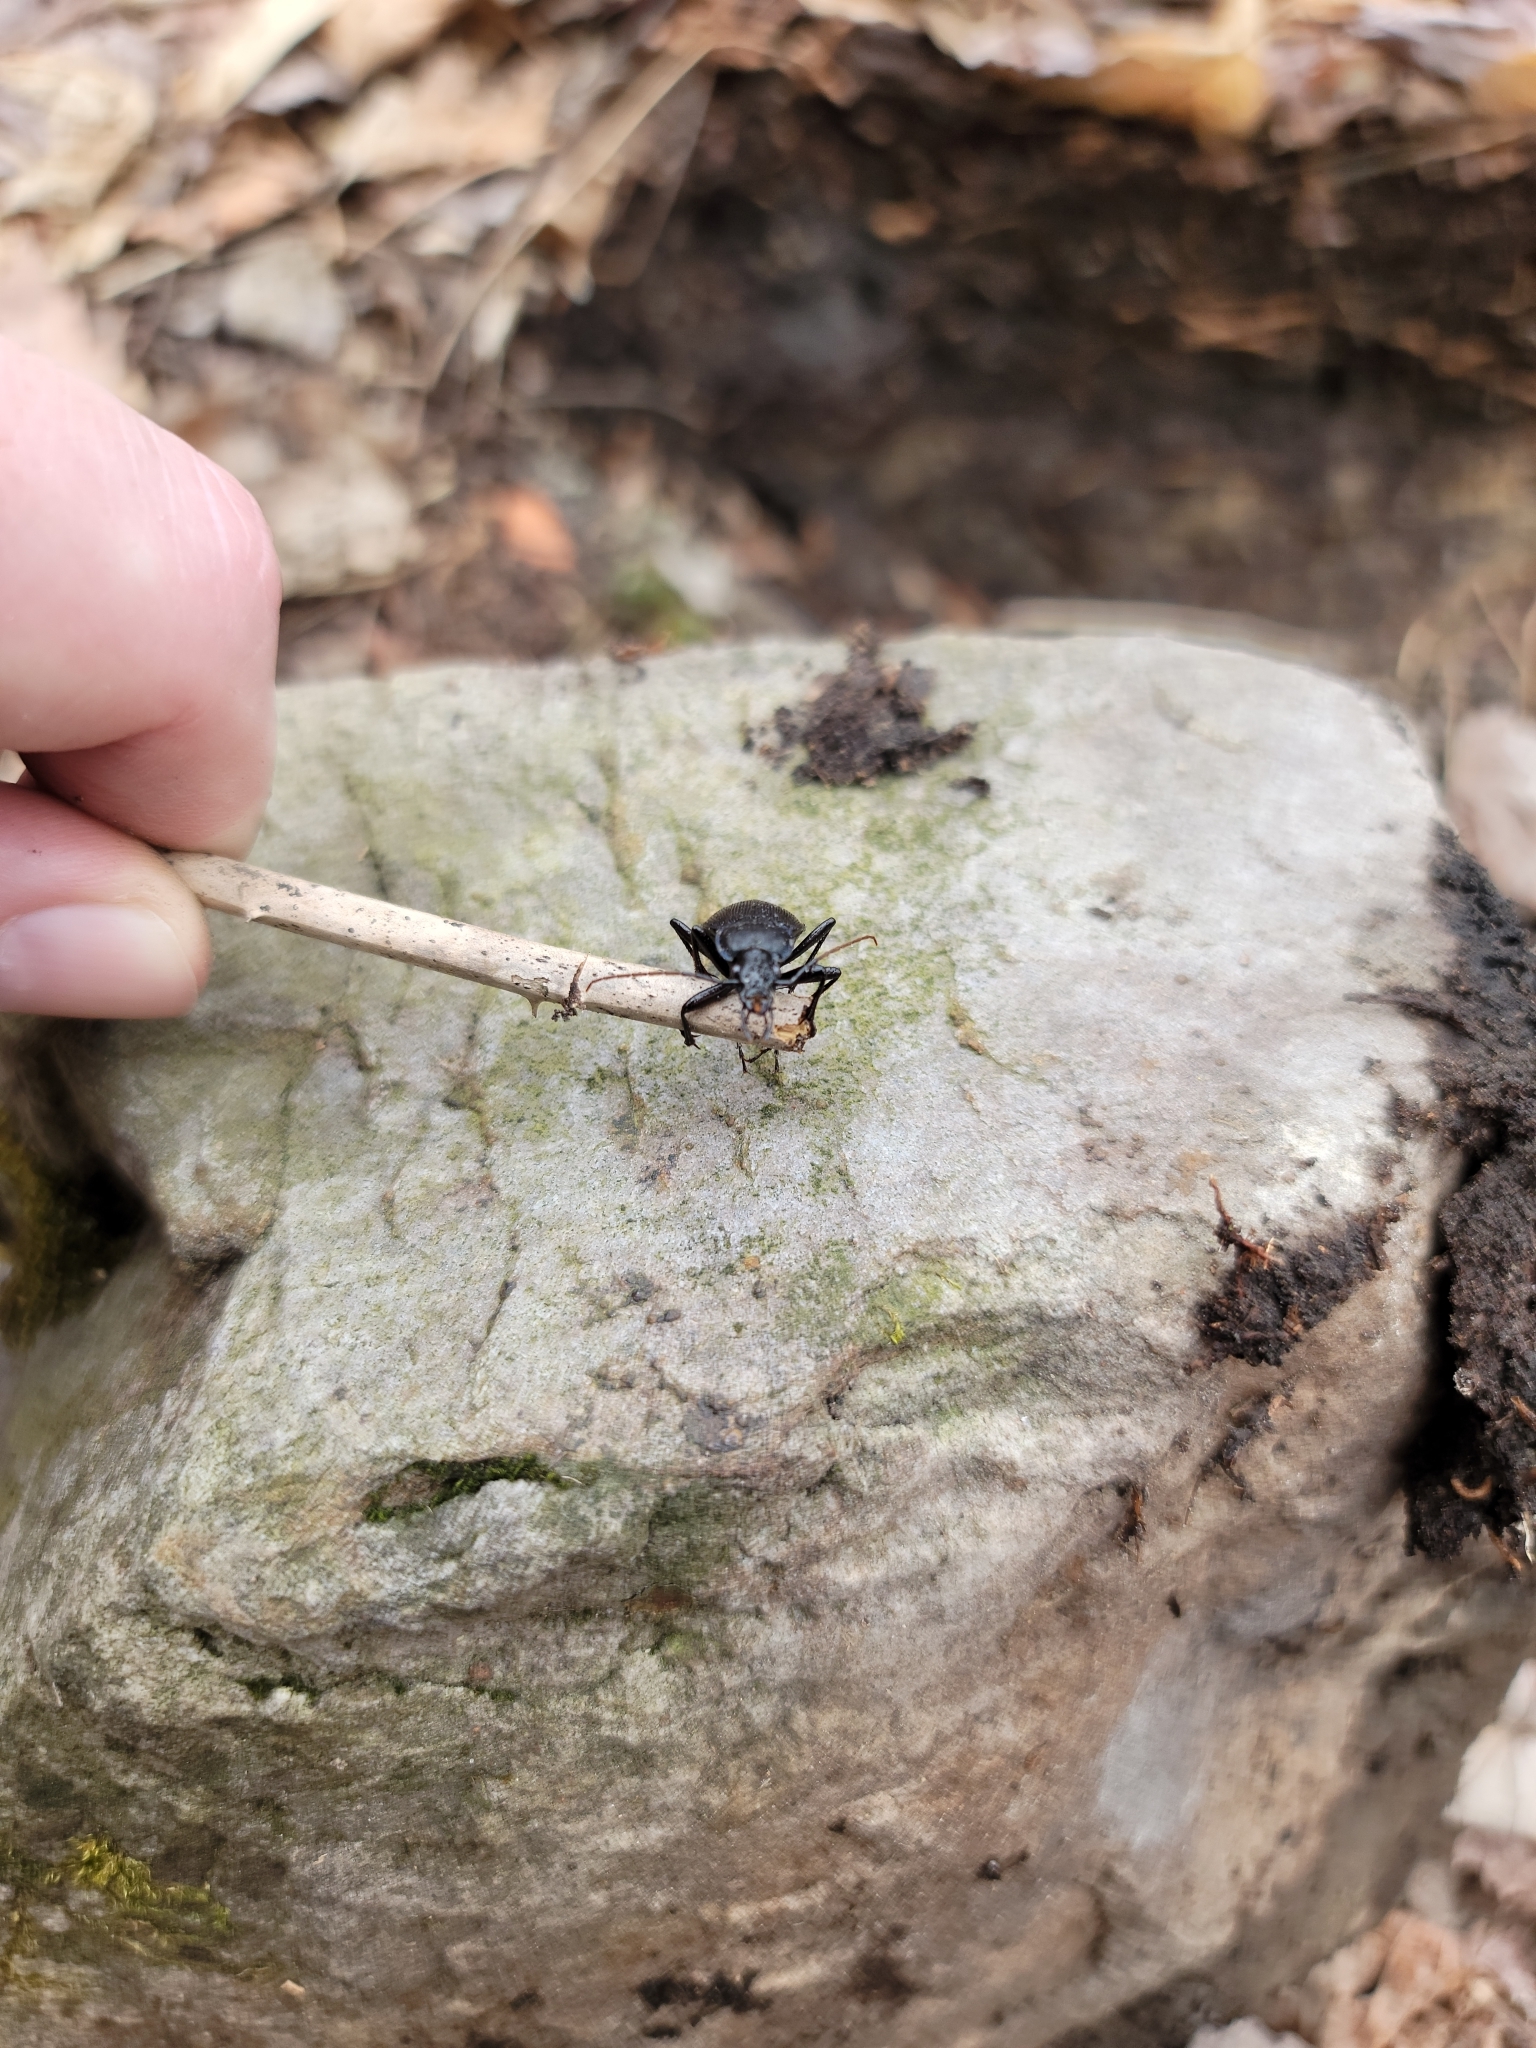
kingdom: Animalia
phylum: Arthropoda
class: Insecta
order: Coleoptera
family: Carabidae
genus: Carabus
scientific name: Carabus goryi
